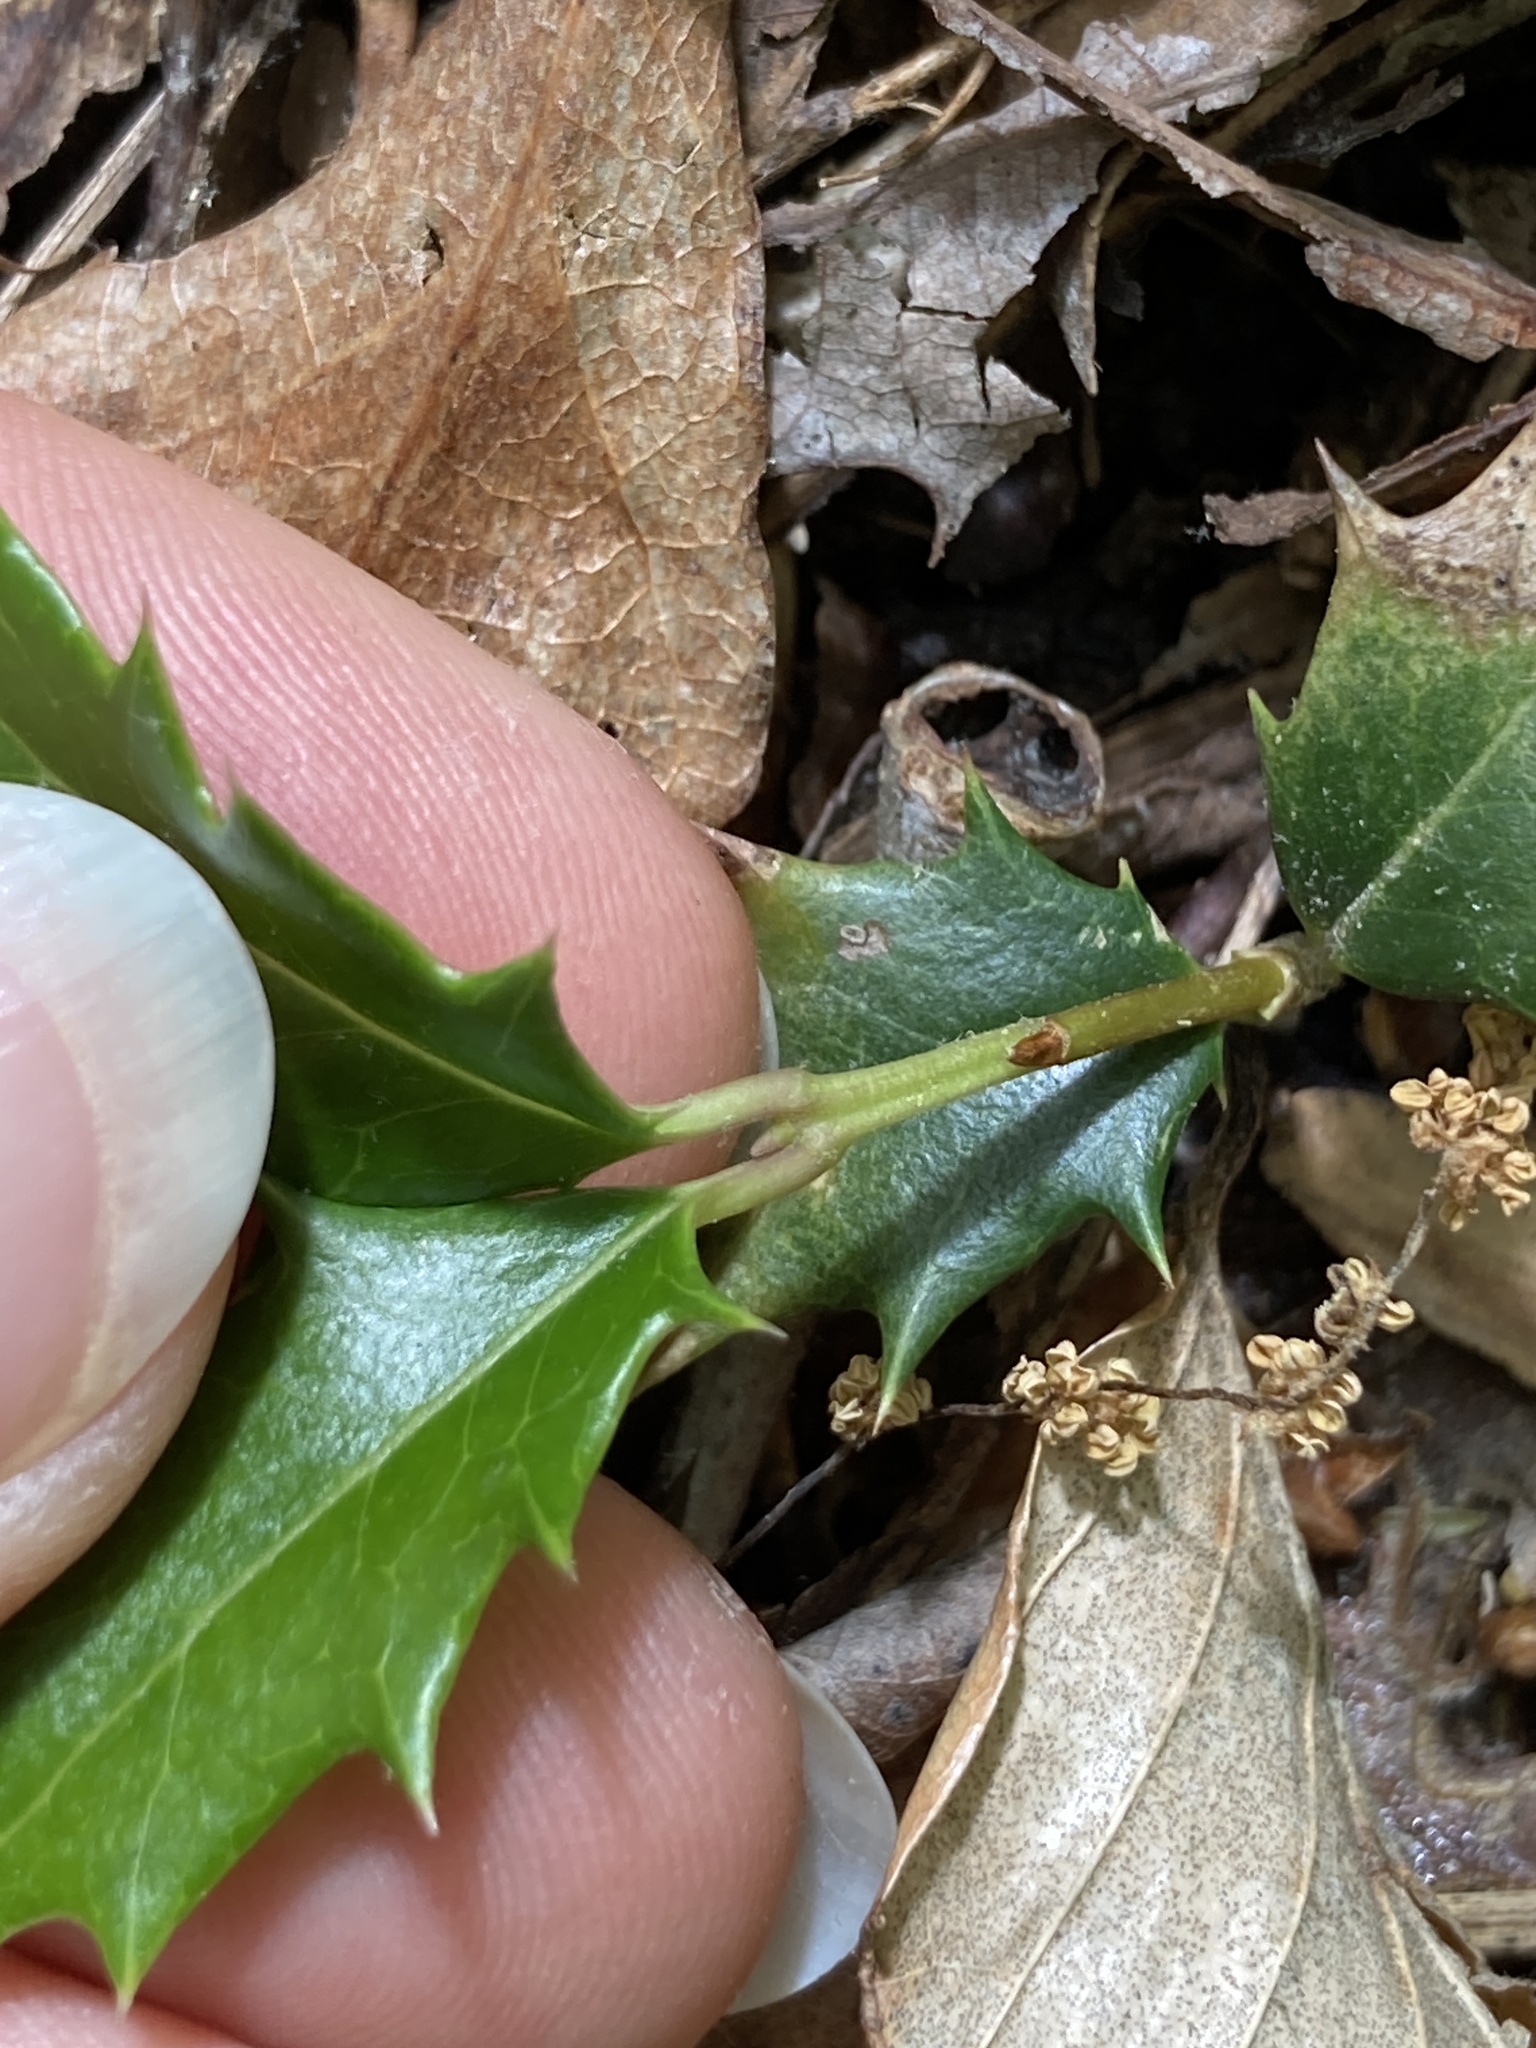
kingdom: Plantae
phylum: Tracheophyta
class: Magnoliopsida
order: Lamiales
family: Oleaceae
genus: Osmanthus
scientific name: Osmanthus heterophyllus
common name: Holly osmanthus
